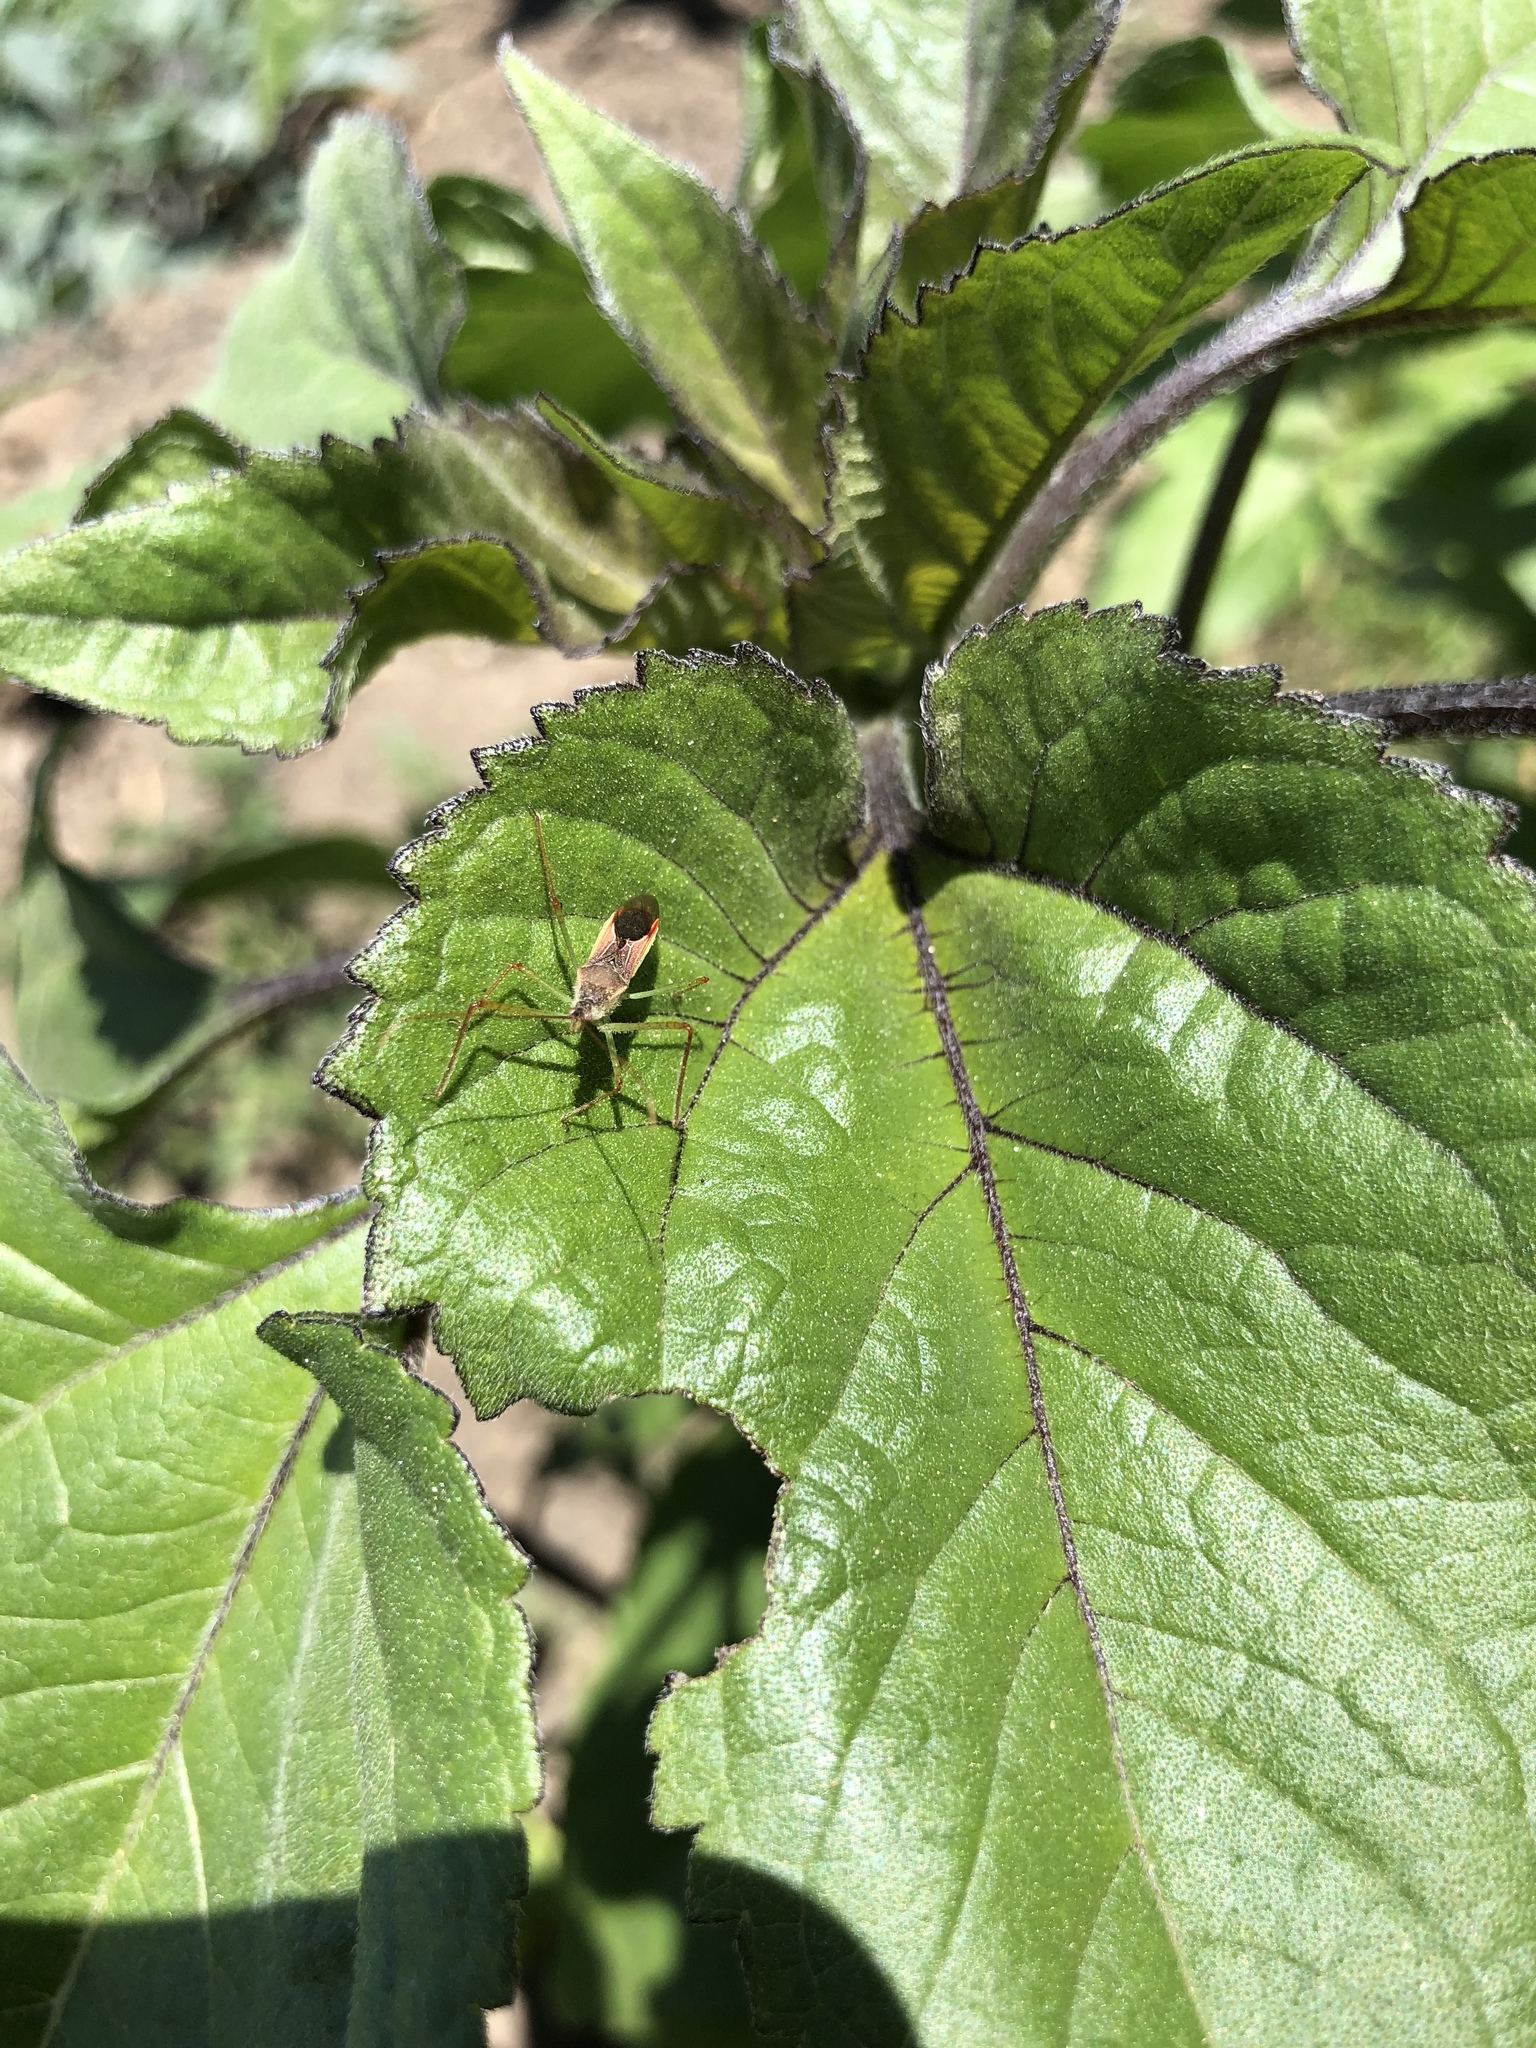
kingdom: Animalia
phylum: Arthropoda
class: Insecta
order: Hemiptera
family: Reduviidae
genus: Zelus
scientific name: Zelus renardii
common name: Assassin bug
